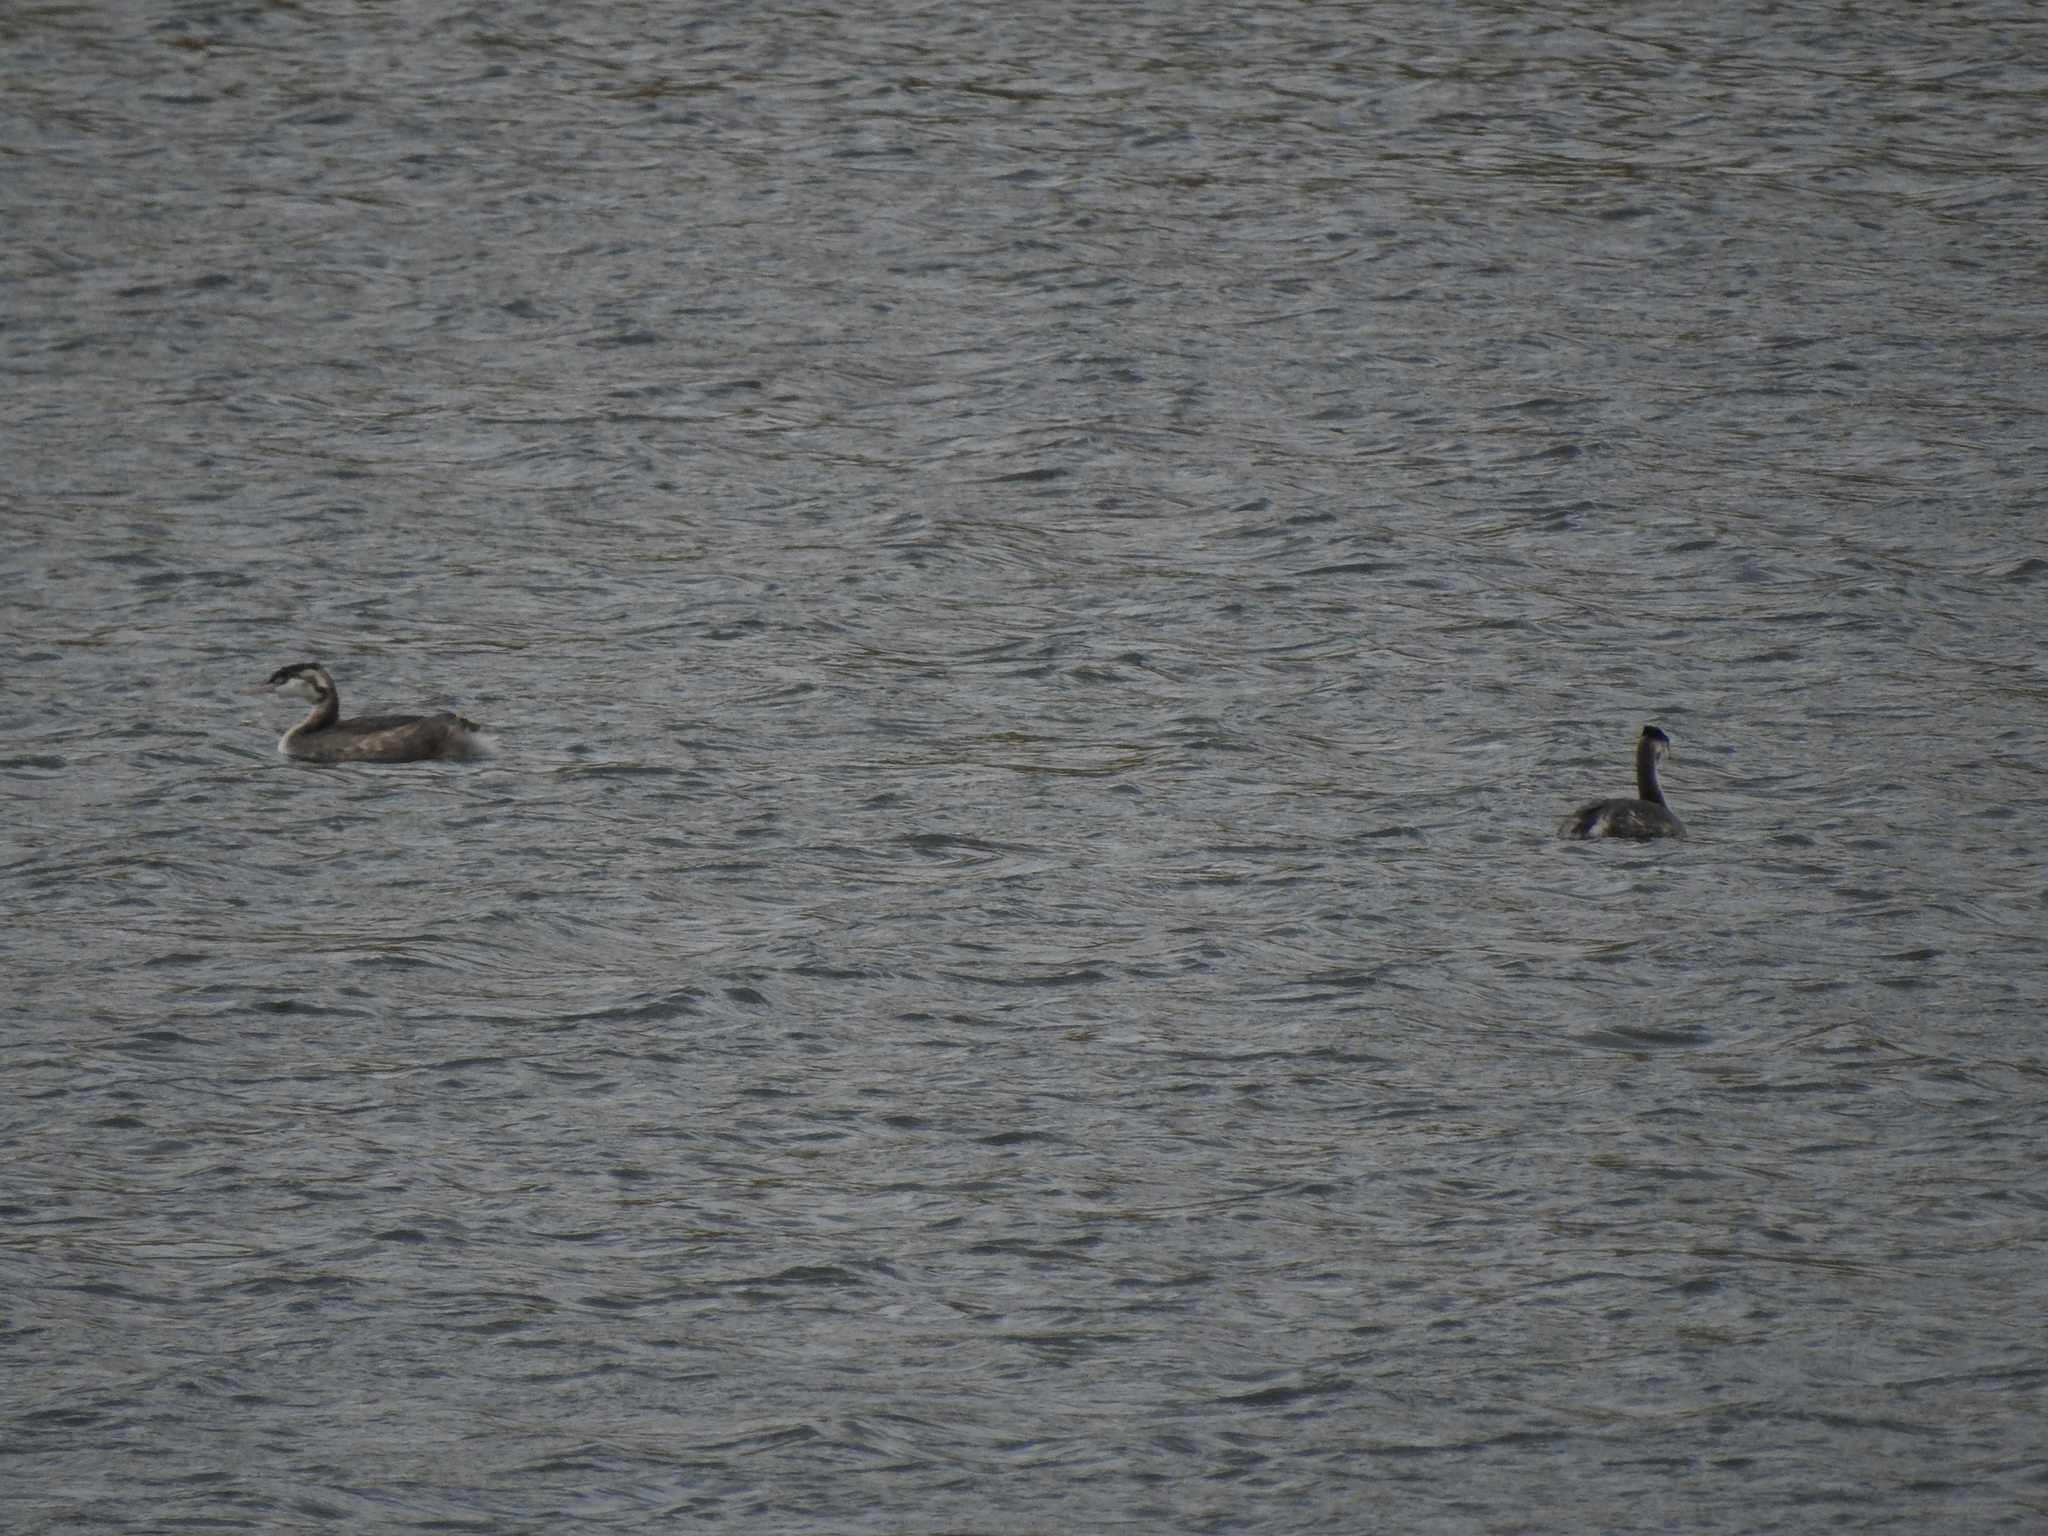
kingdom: Animalia
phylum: Chordata
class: Aves
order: Podicipediformes
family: Podicipedidae
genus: Podiceps
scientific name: Podiceps cristatus
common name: Great crested grebe
